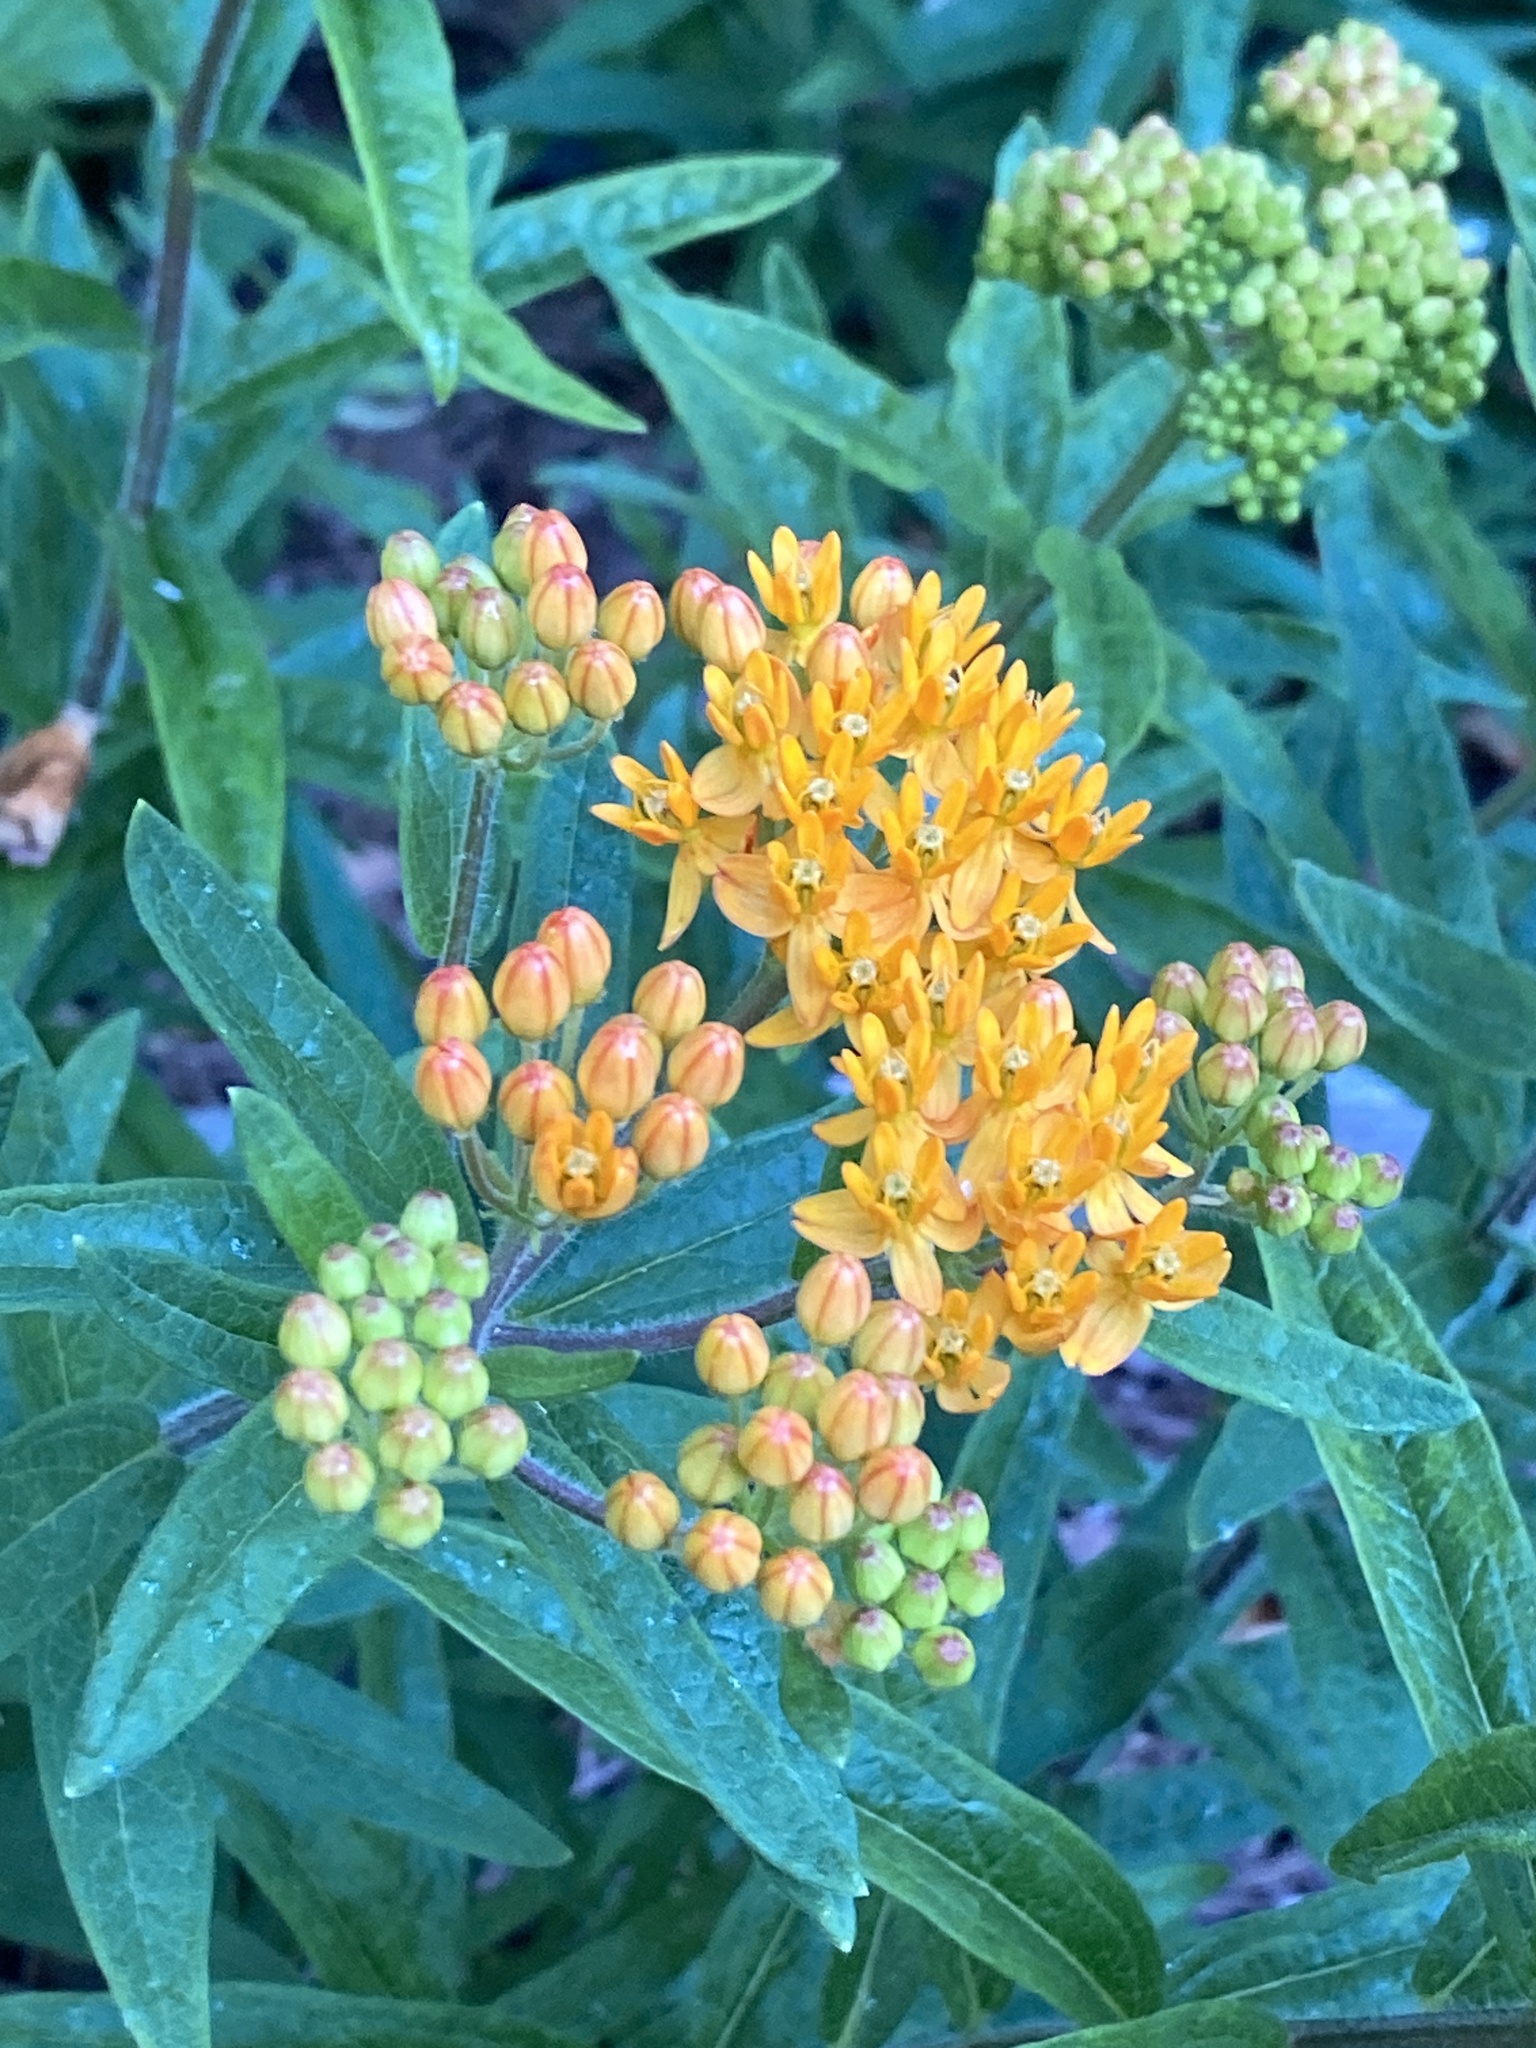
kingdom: Plantae
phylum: Tracheophyta
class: Magnoliopsida
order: Gentianales
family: Apocynaceae
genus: Asclepias
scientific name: Asclepias tuberosa
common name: Butterfly milkweed
